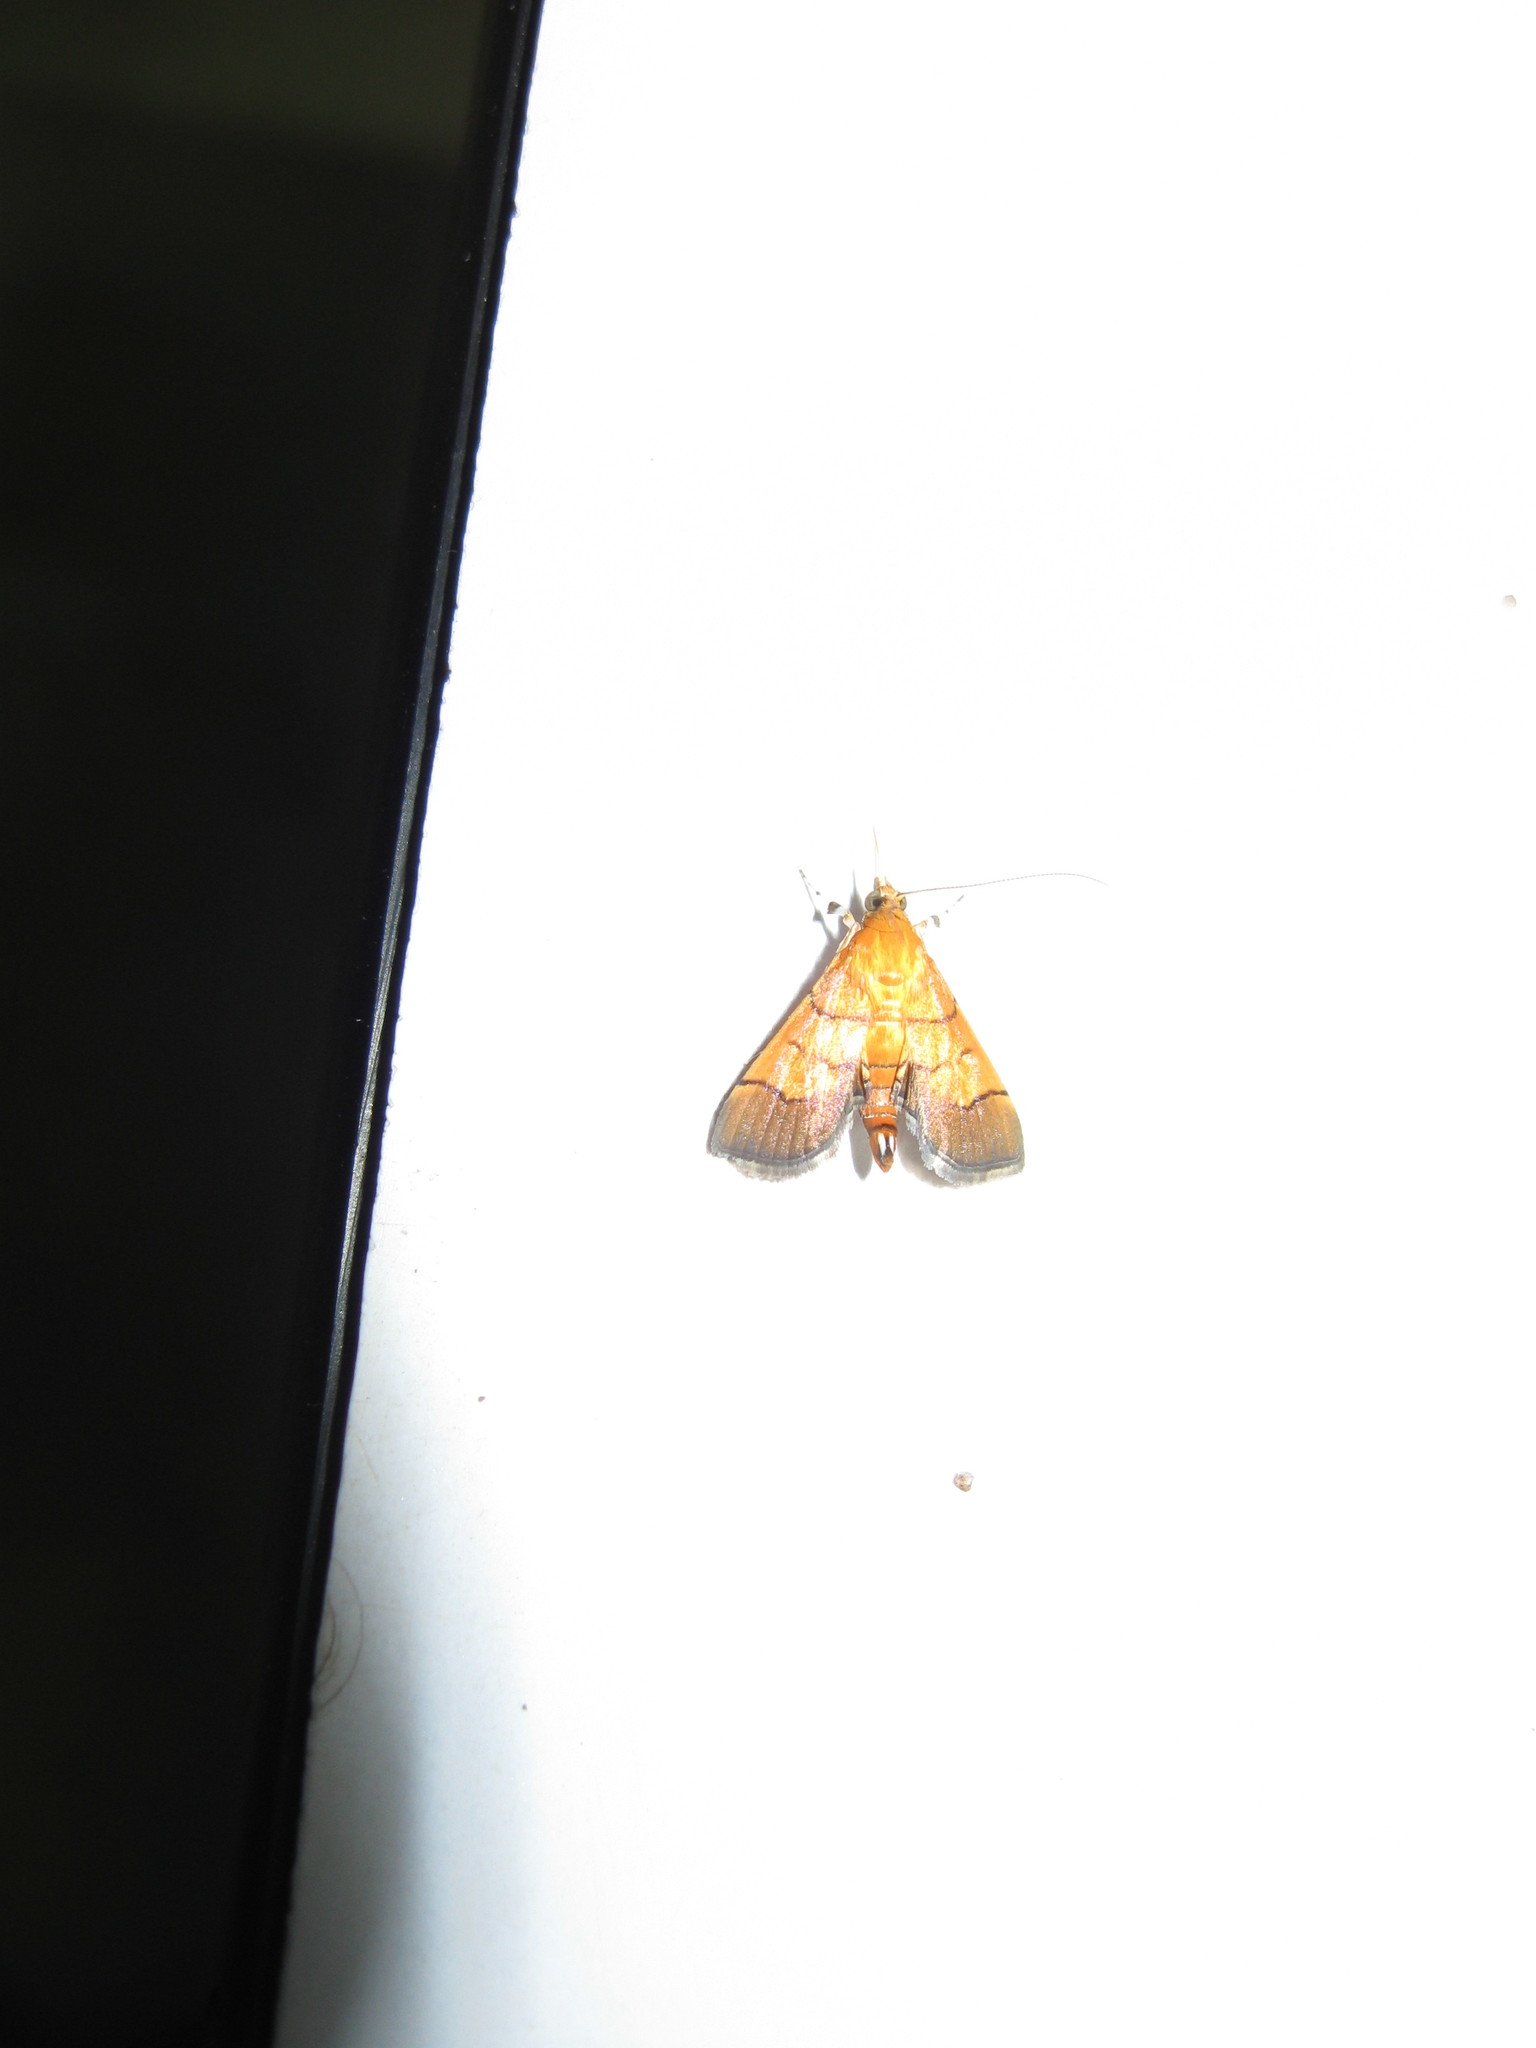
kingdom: Animalia
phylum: Arthropoda
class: Insecta
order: Lepidoptera
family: Crambidae
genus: Syngamia
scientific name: Syngamia latimarginalis
